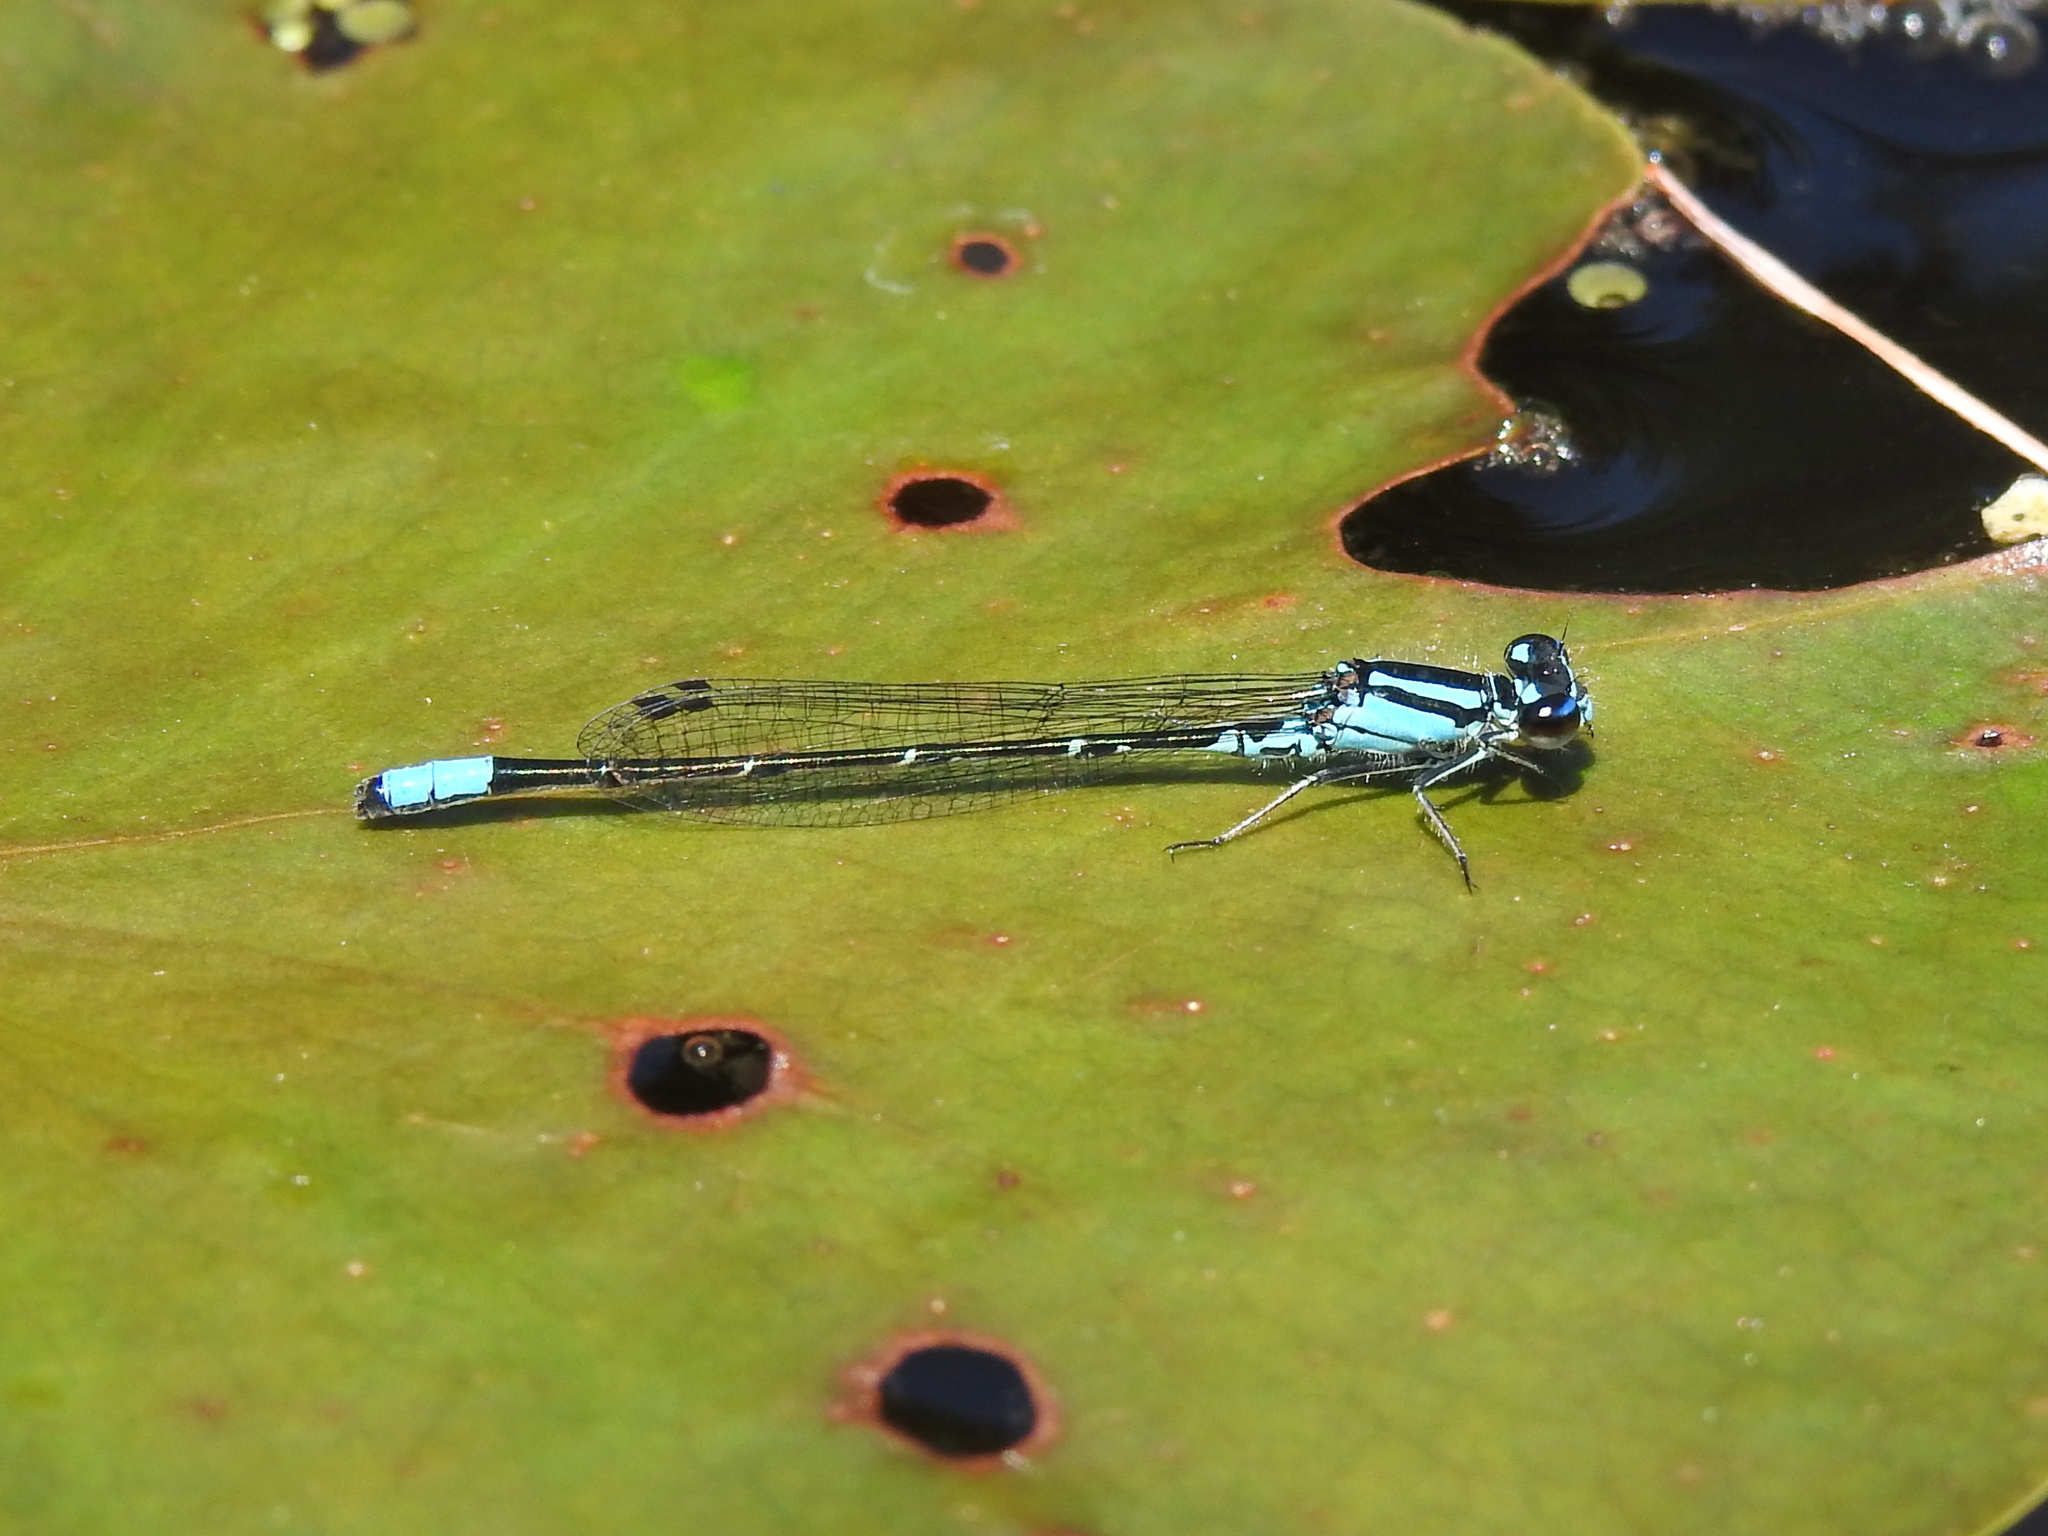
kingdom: Animalia
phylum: Arthropoda
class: Insecta
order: Odonata
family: Coenagrionidae
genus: Enallagma
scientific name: Enallagma geminatum
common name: Skimming bluet
